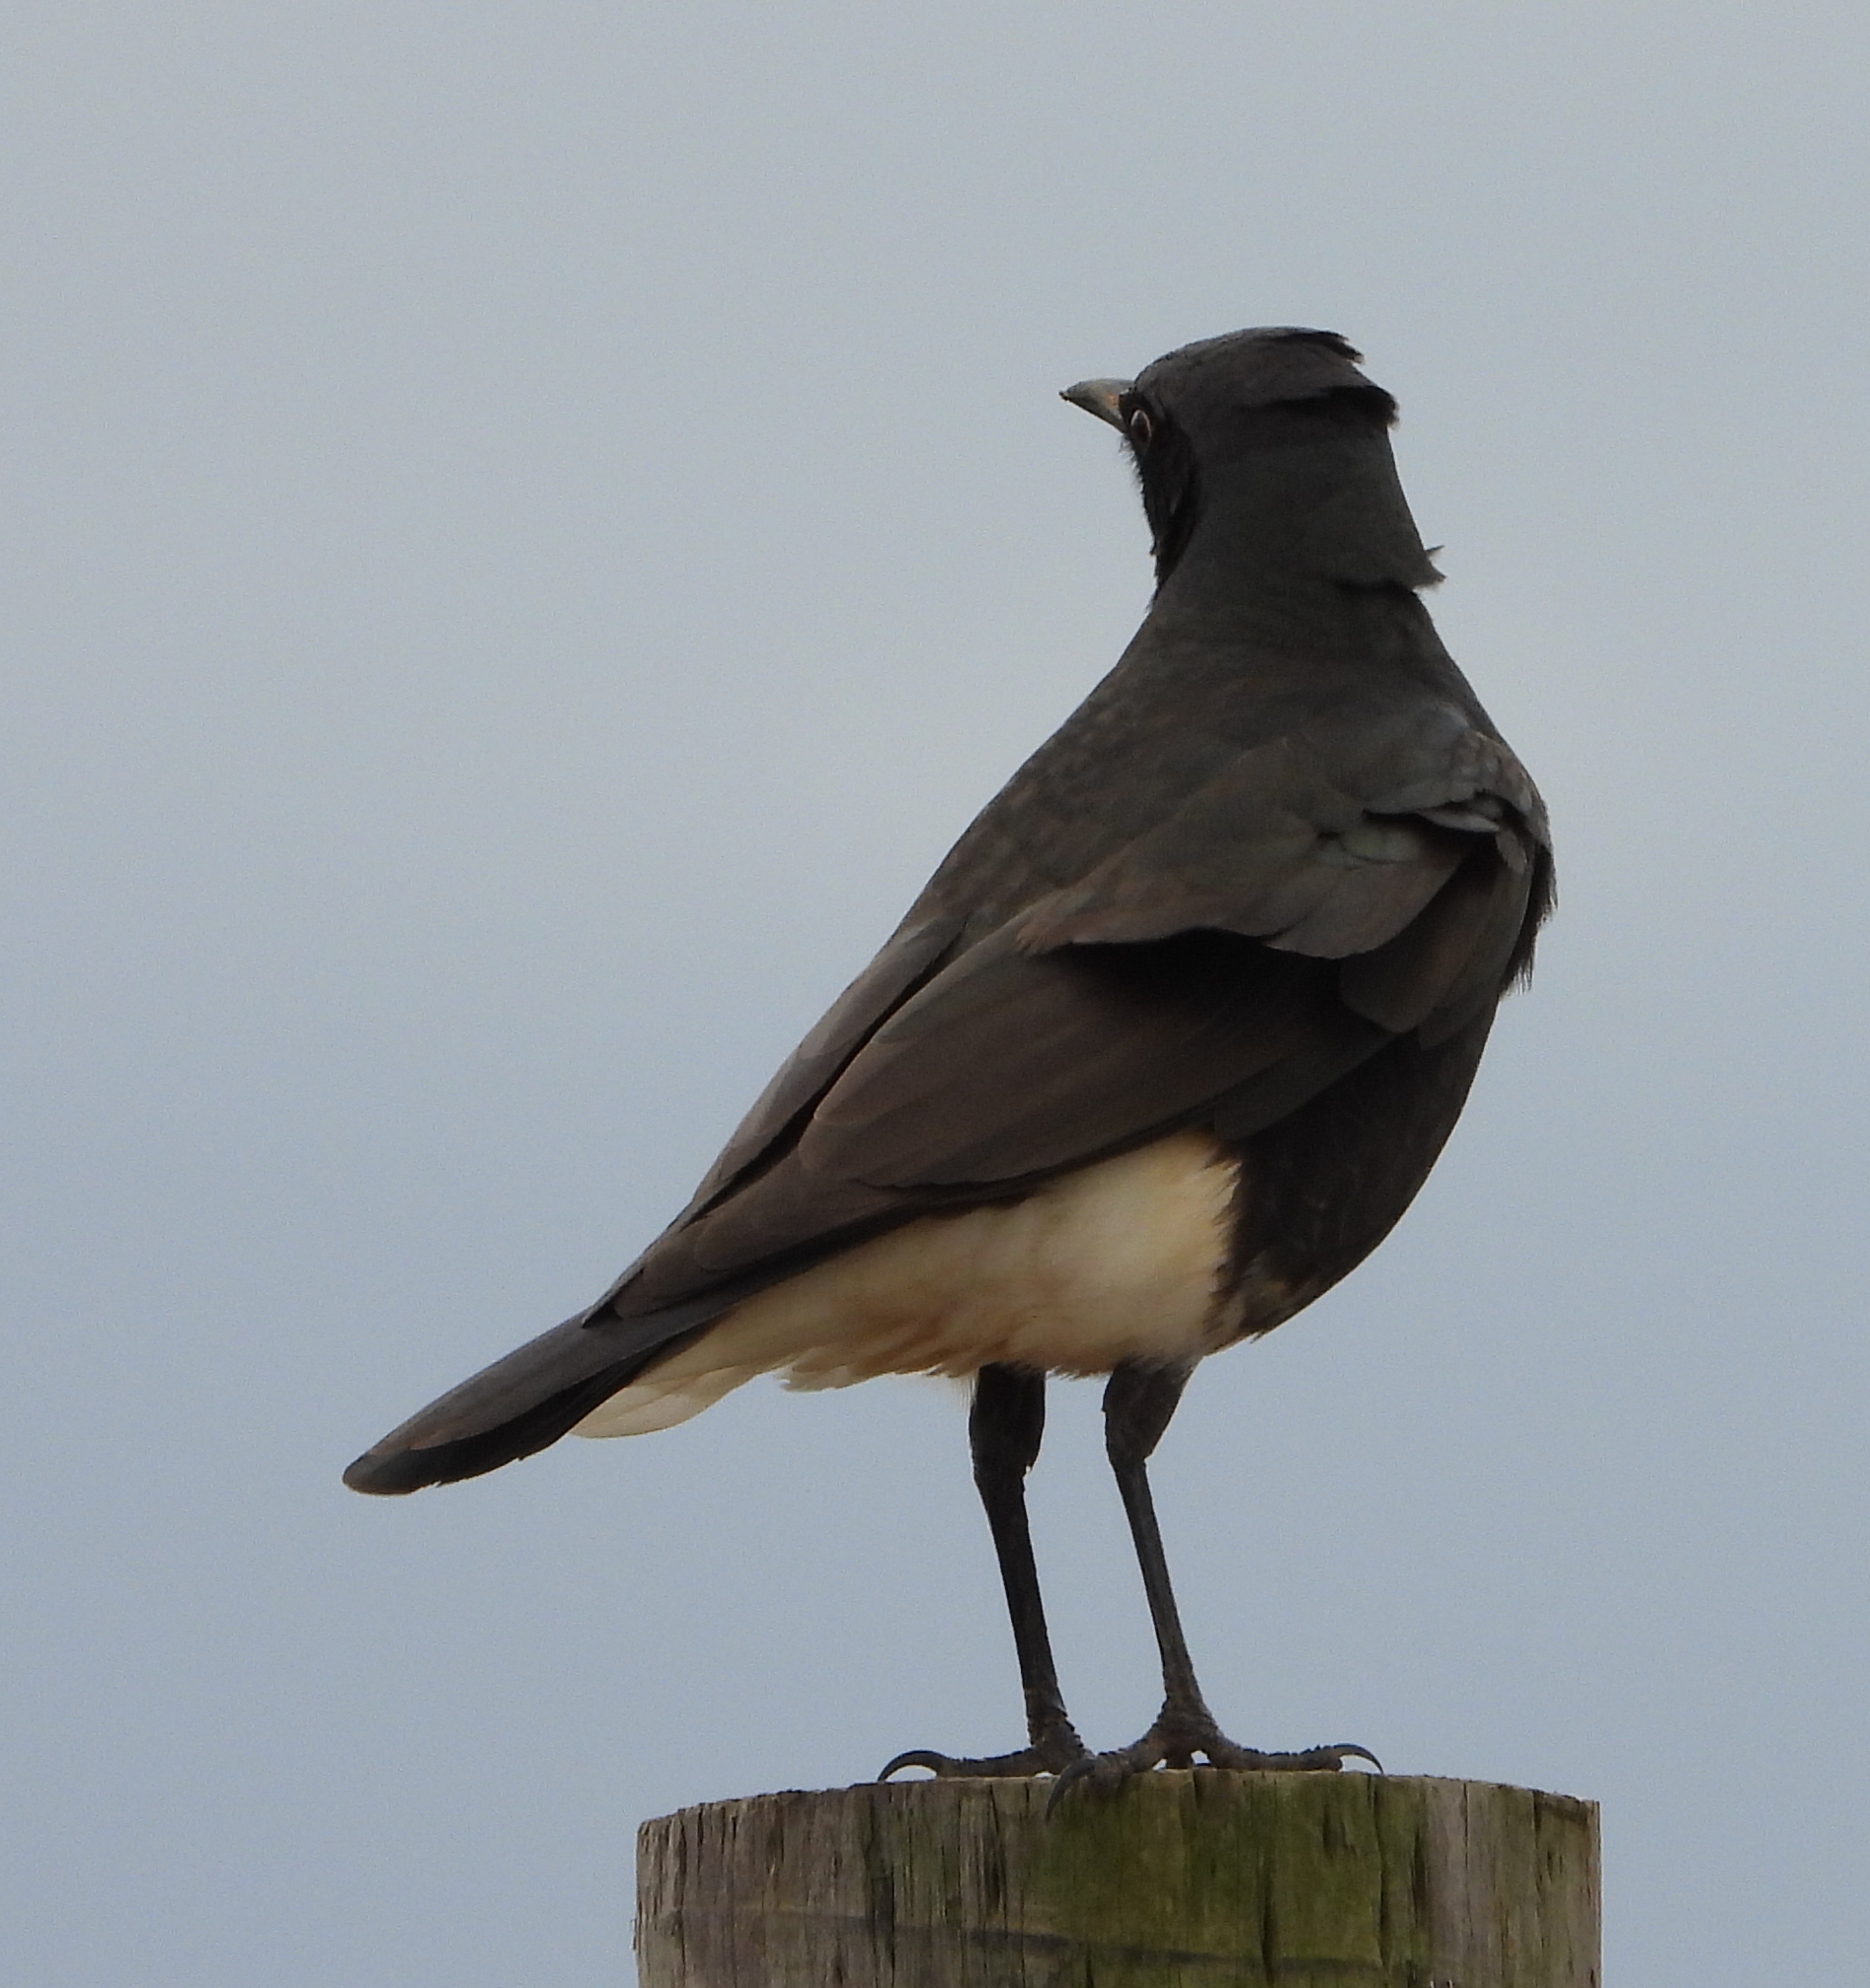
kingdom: Animalia
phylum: Chordata
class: Aves
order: Passeriformes
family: Sturnidae
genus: Lamprotornis
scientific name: Lamprotornis bicolor
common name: Pied starling
